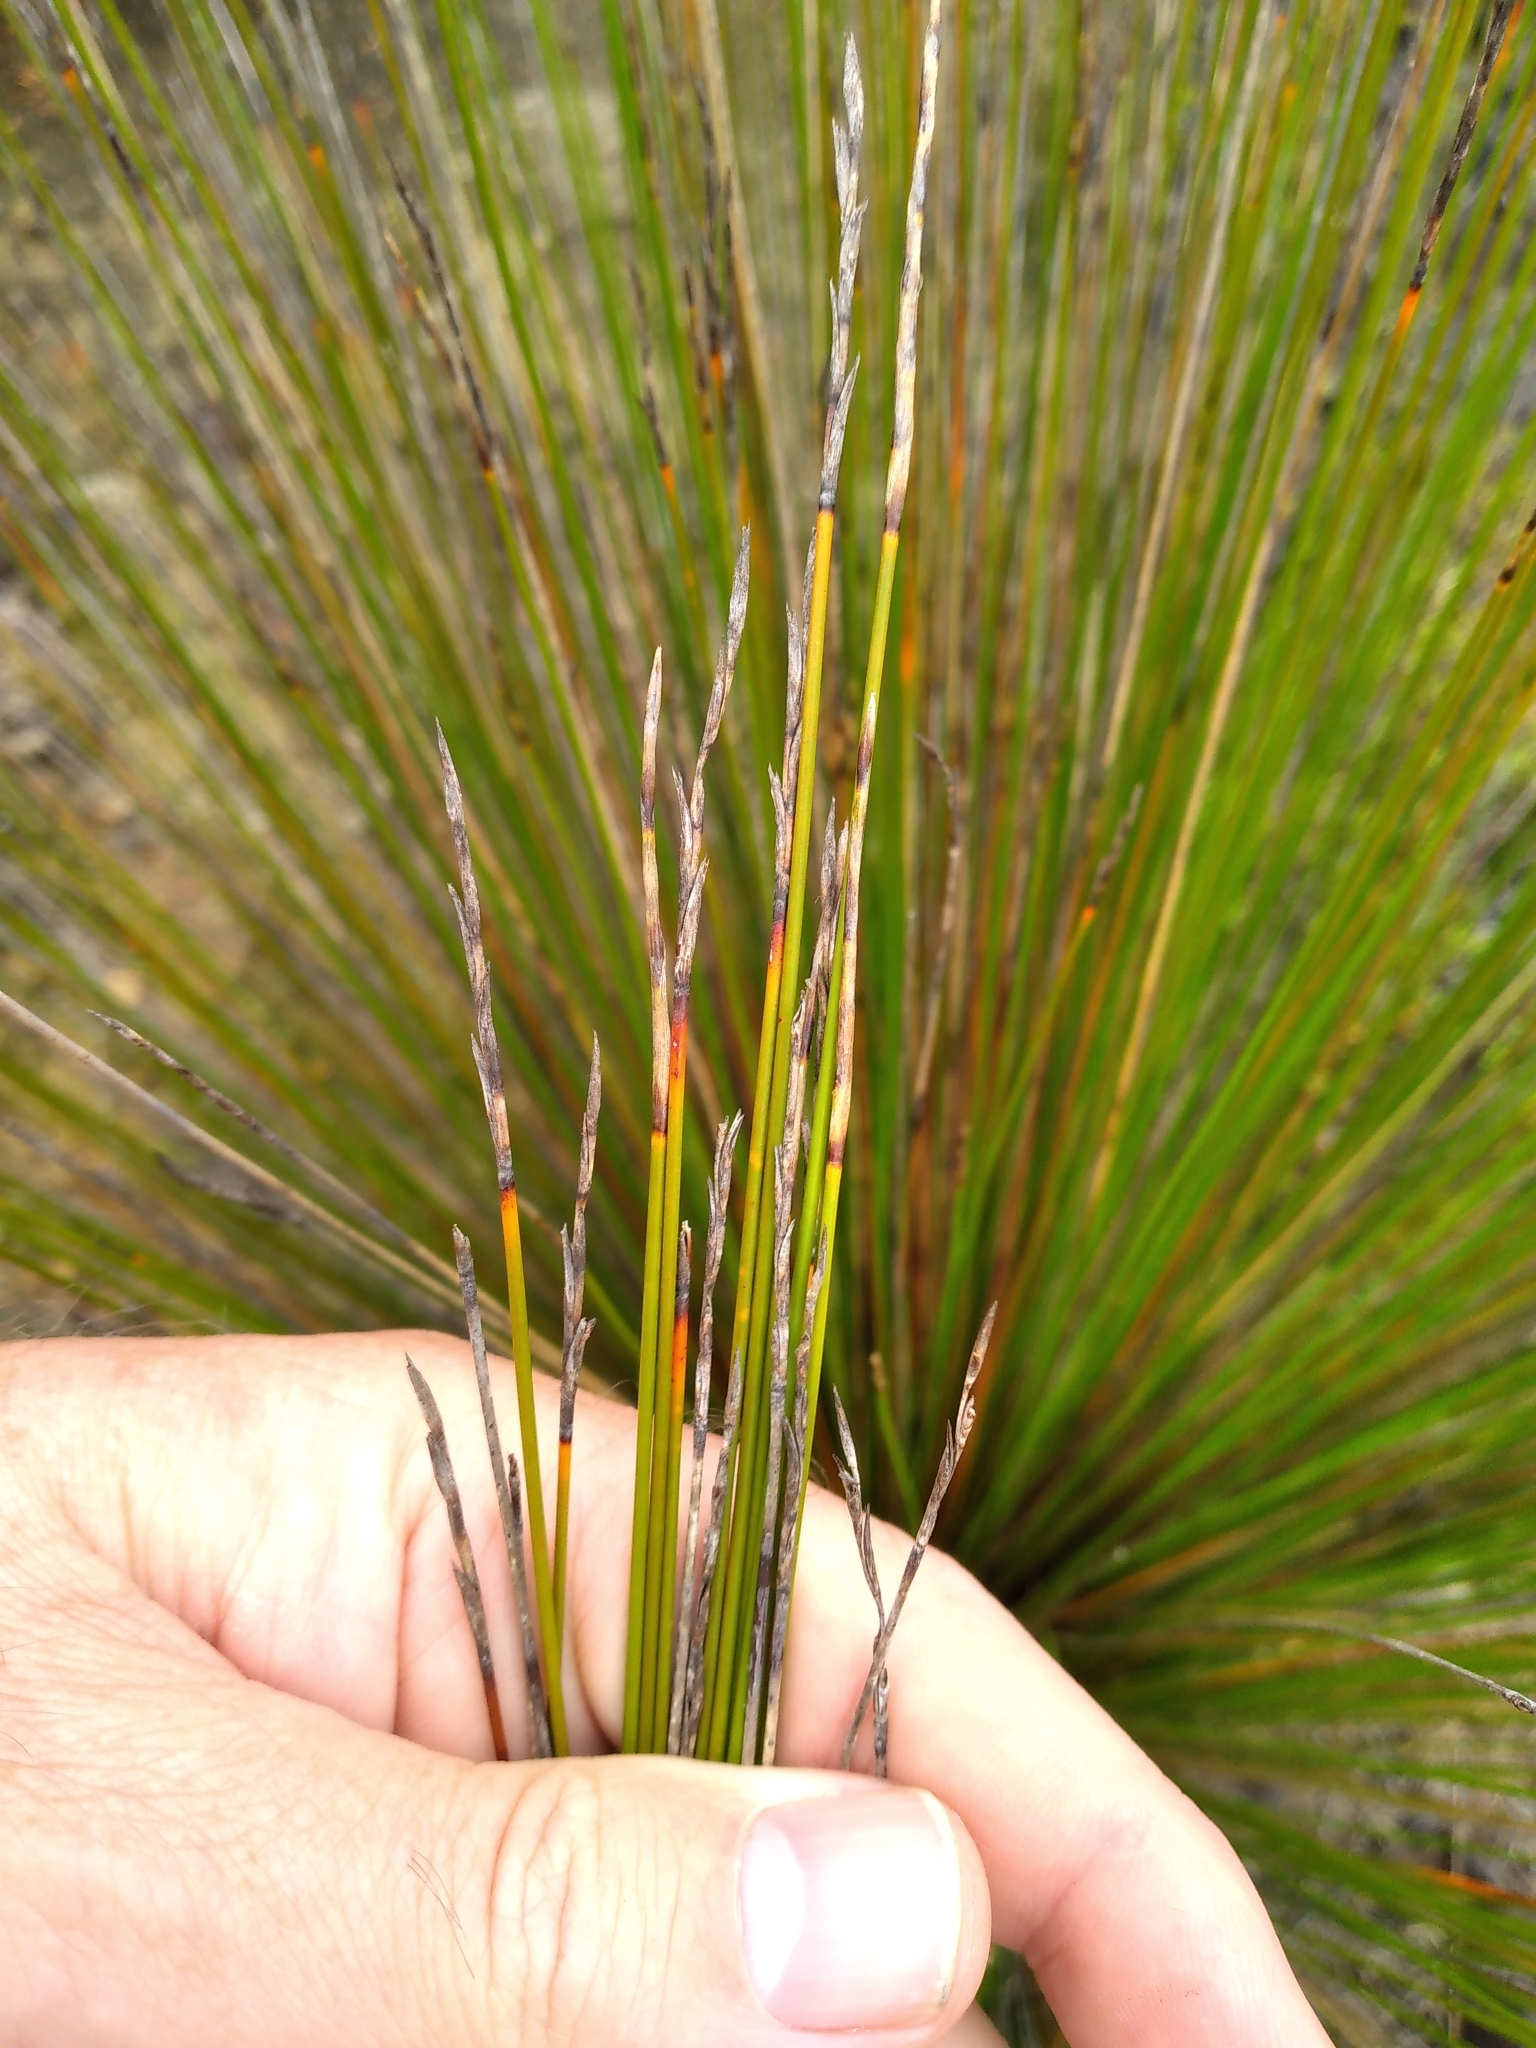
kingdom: Plantae
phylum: Tracheophyta
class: Liliopsida
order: Poales
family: Cyperaceae
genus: Lepidosperma
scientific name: Lepidosperma
